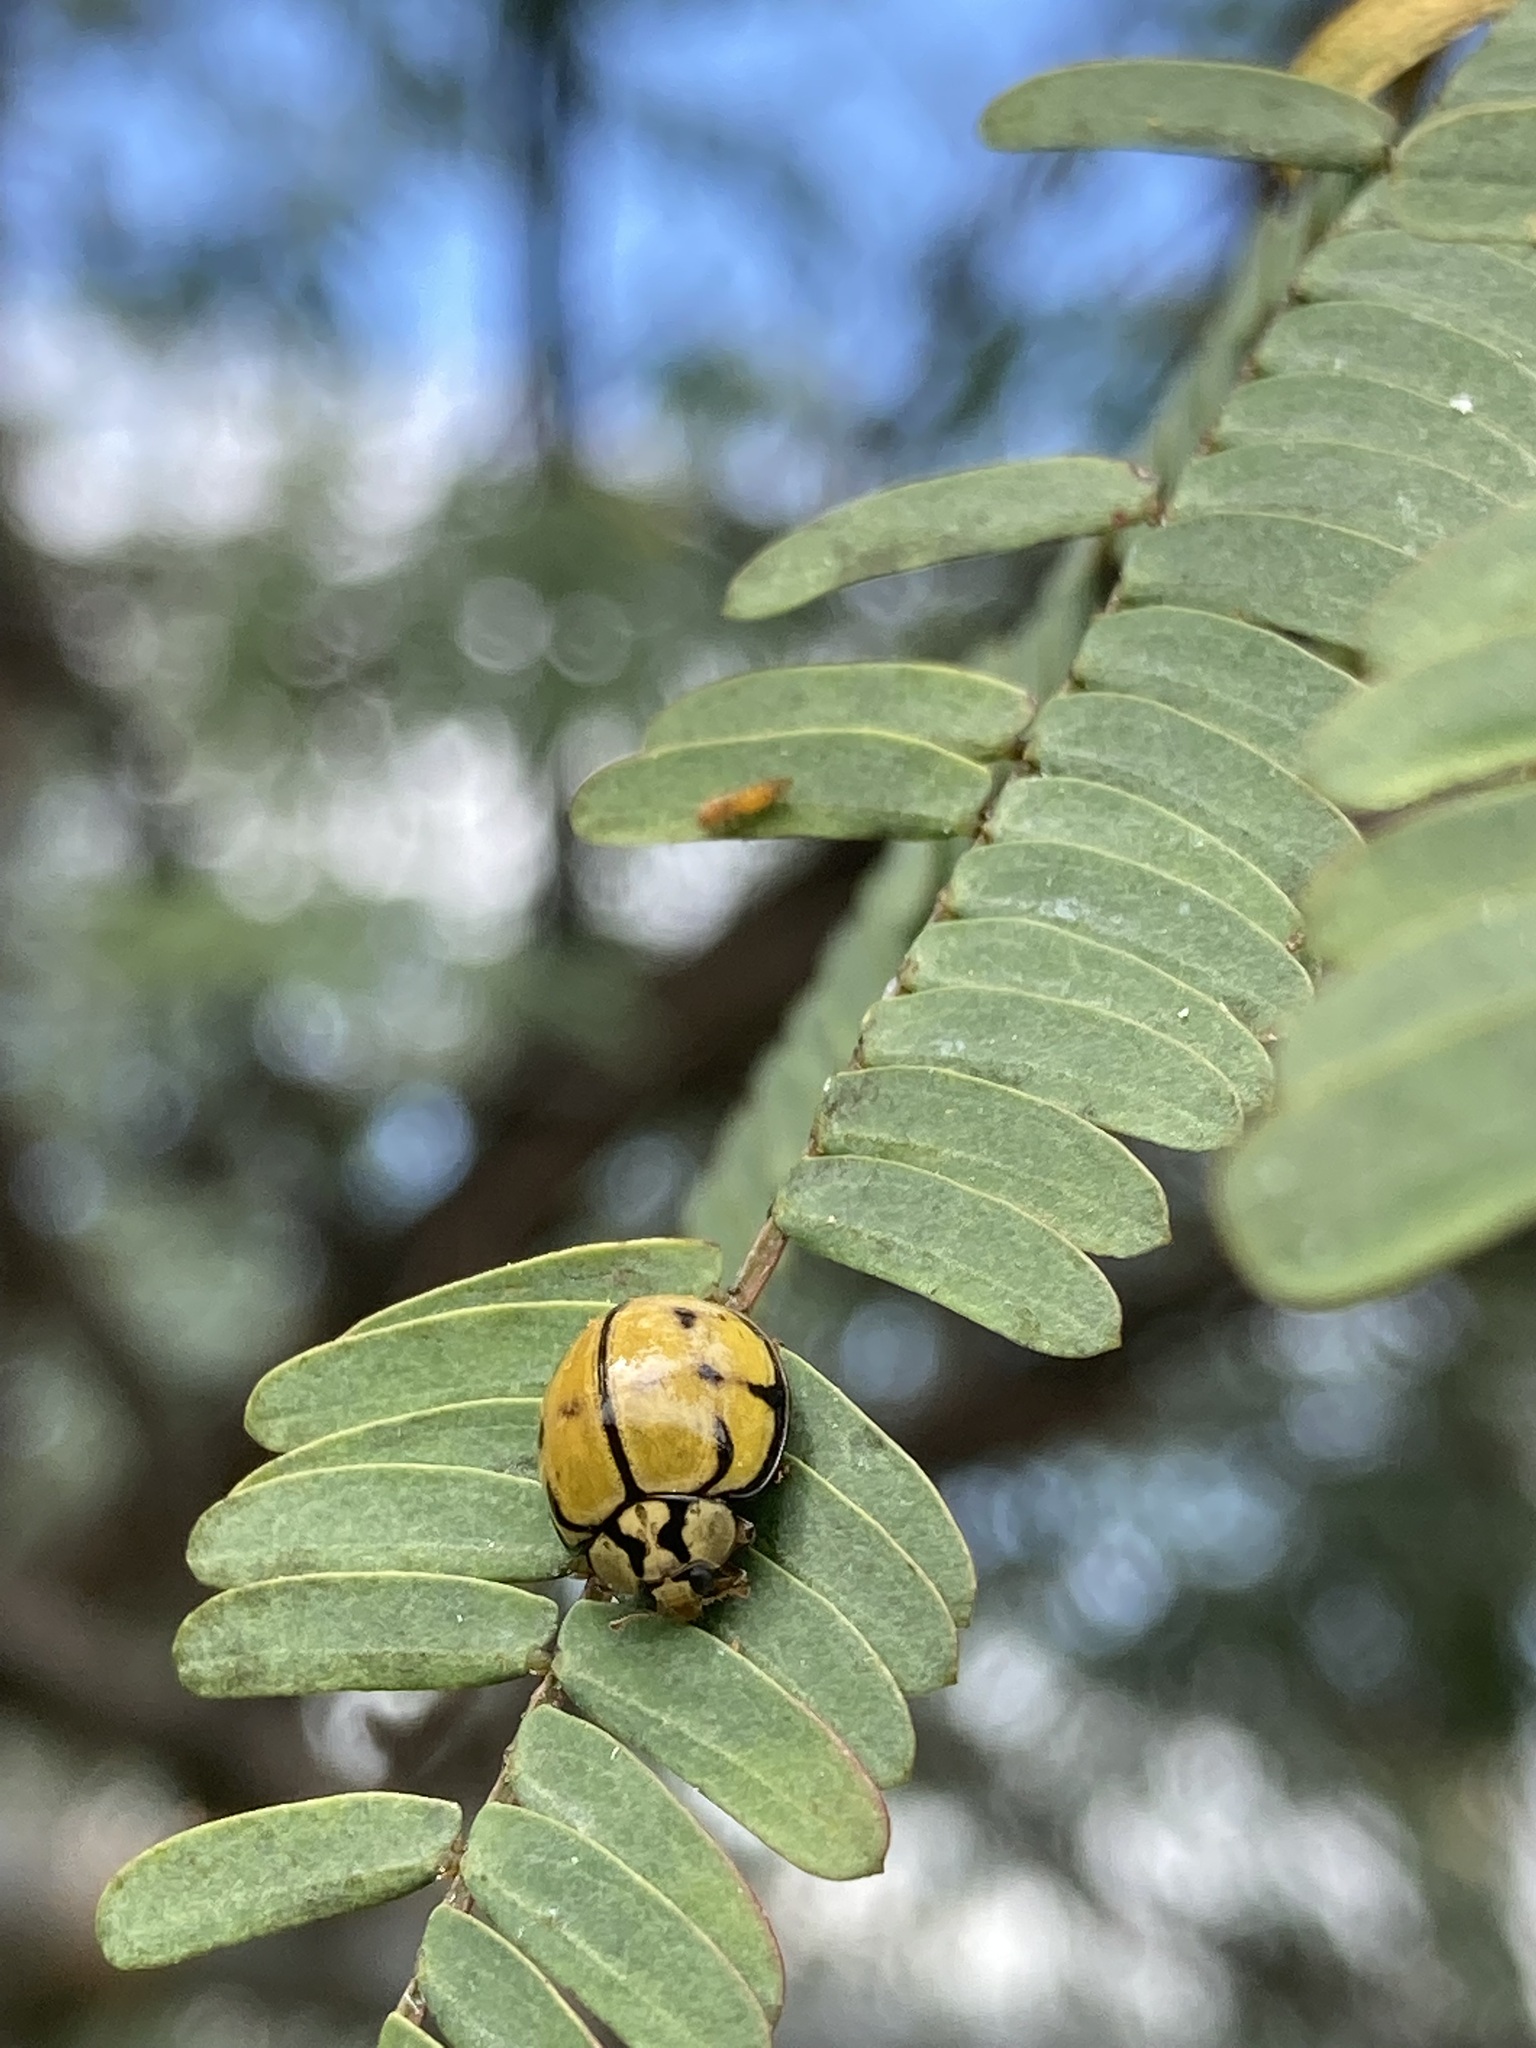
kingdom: Animalia
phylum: Arthropoda
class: Insecta
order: Coleoptera
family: Coccinellidae
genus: Harmonia
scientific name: Harmonia
